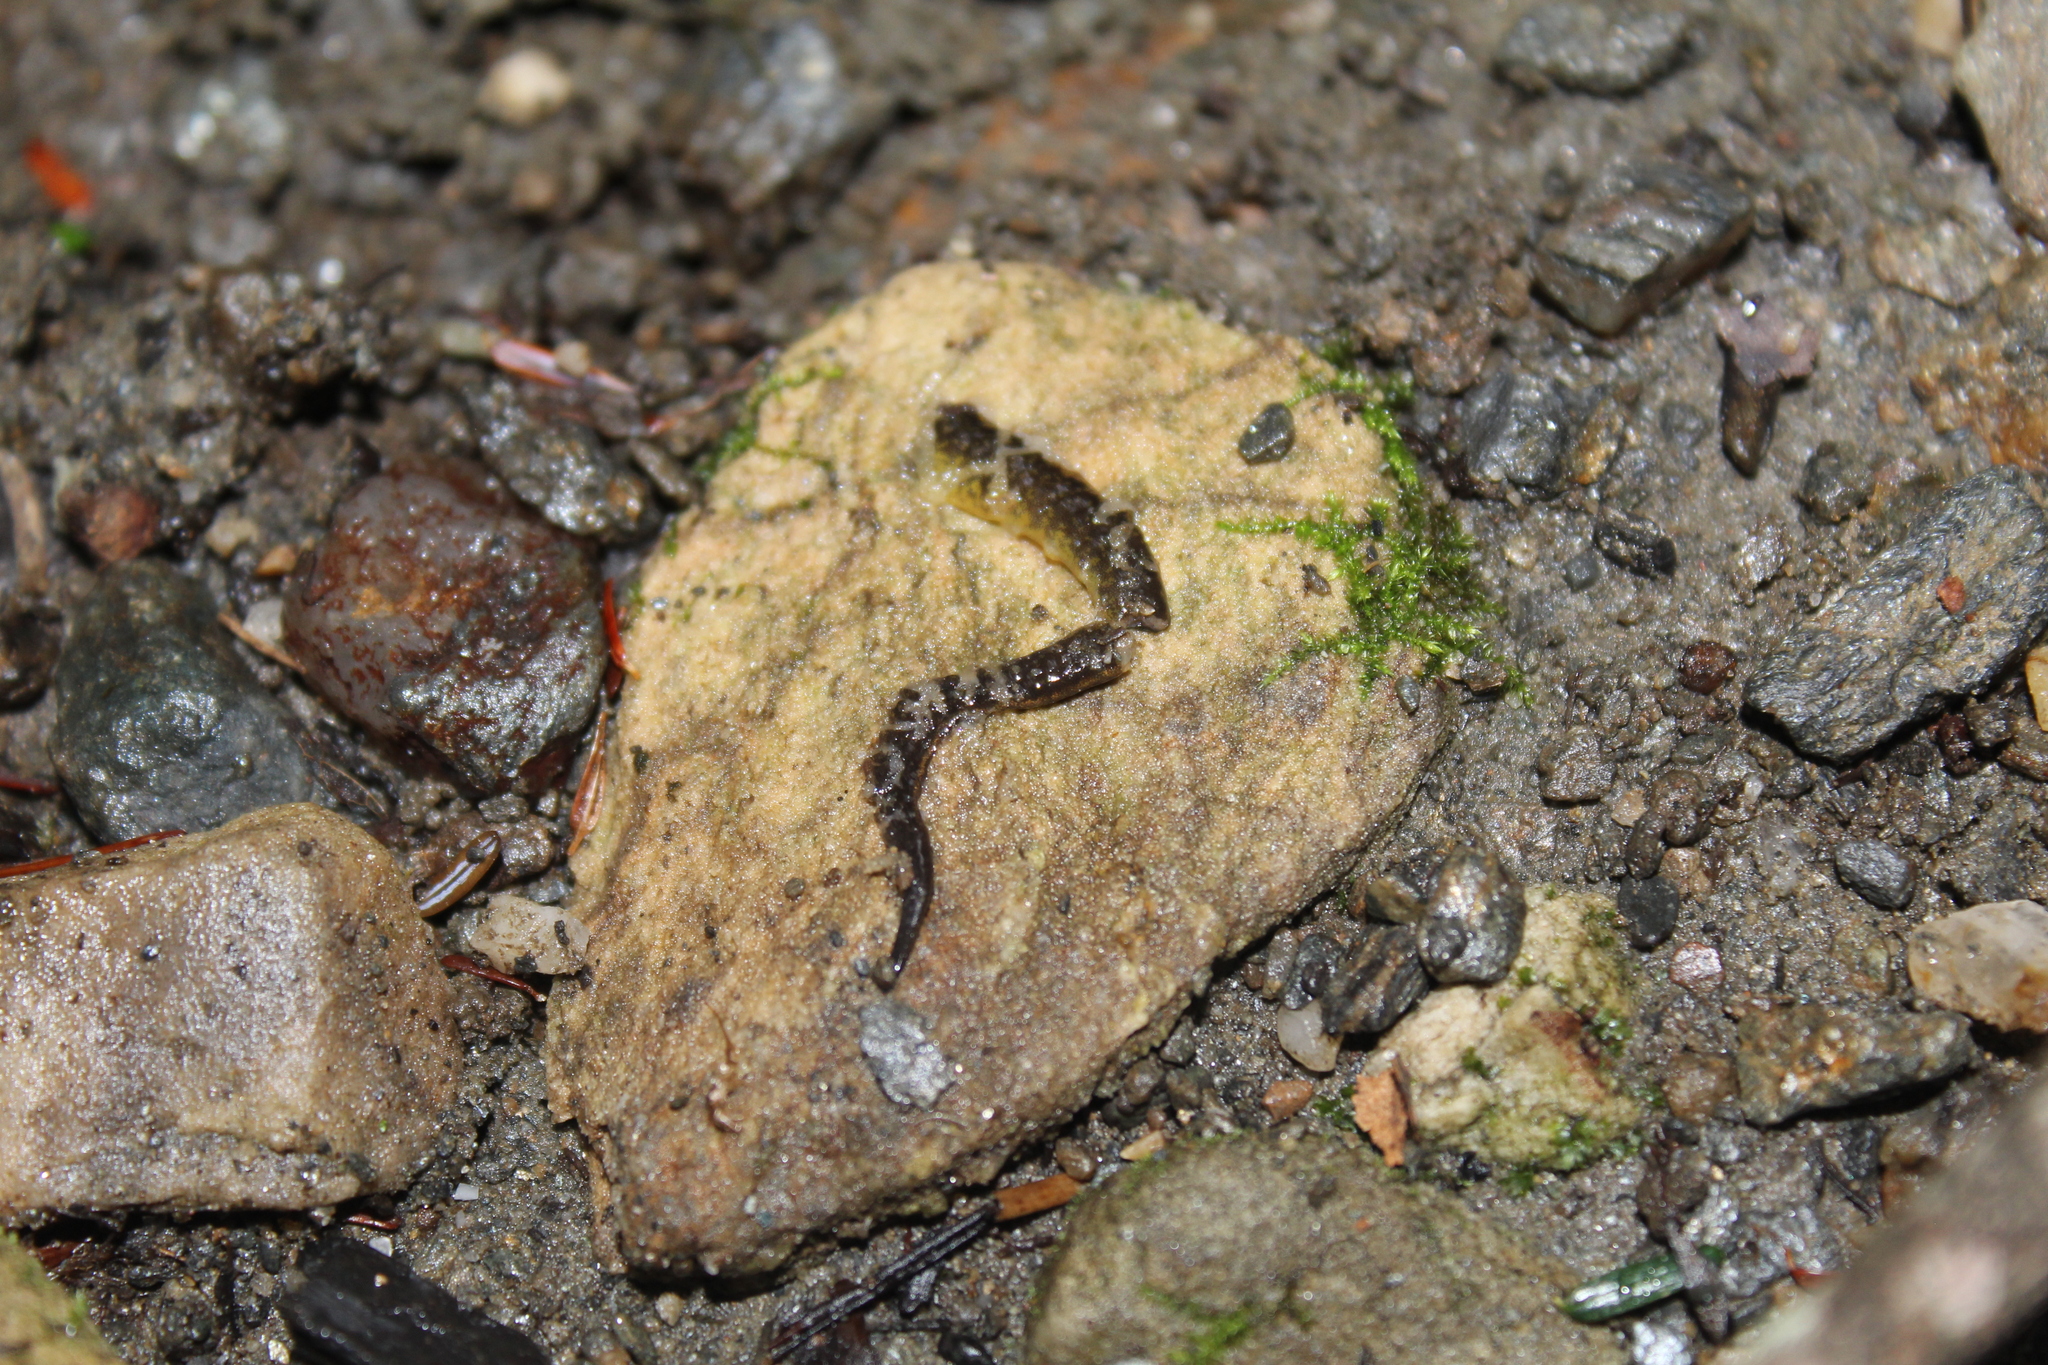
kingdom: Animalia
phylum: Chordata
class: Amphibia
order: Caudata
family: Plethodontidae
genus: Eurycea
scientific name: Eurycea bislineata
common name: Northern two-lined salamander
